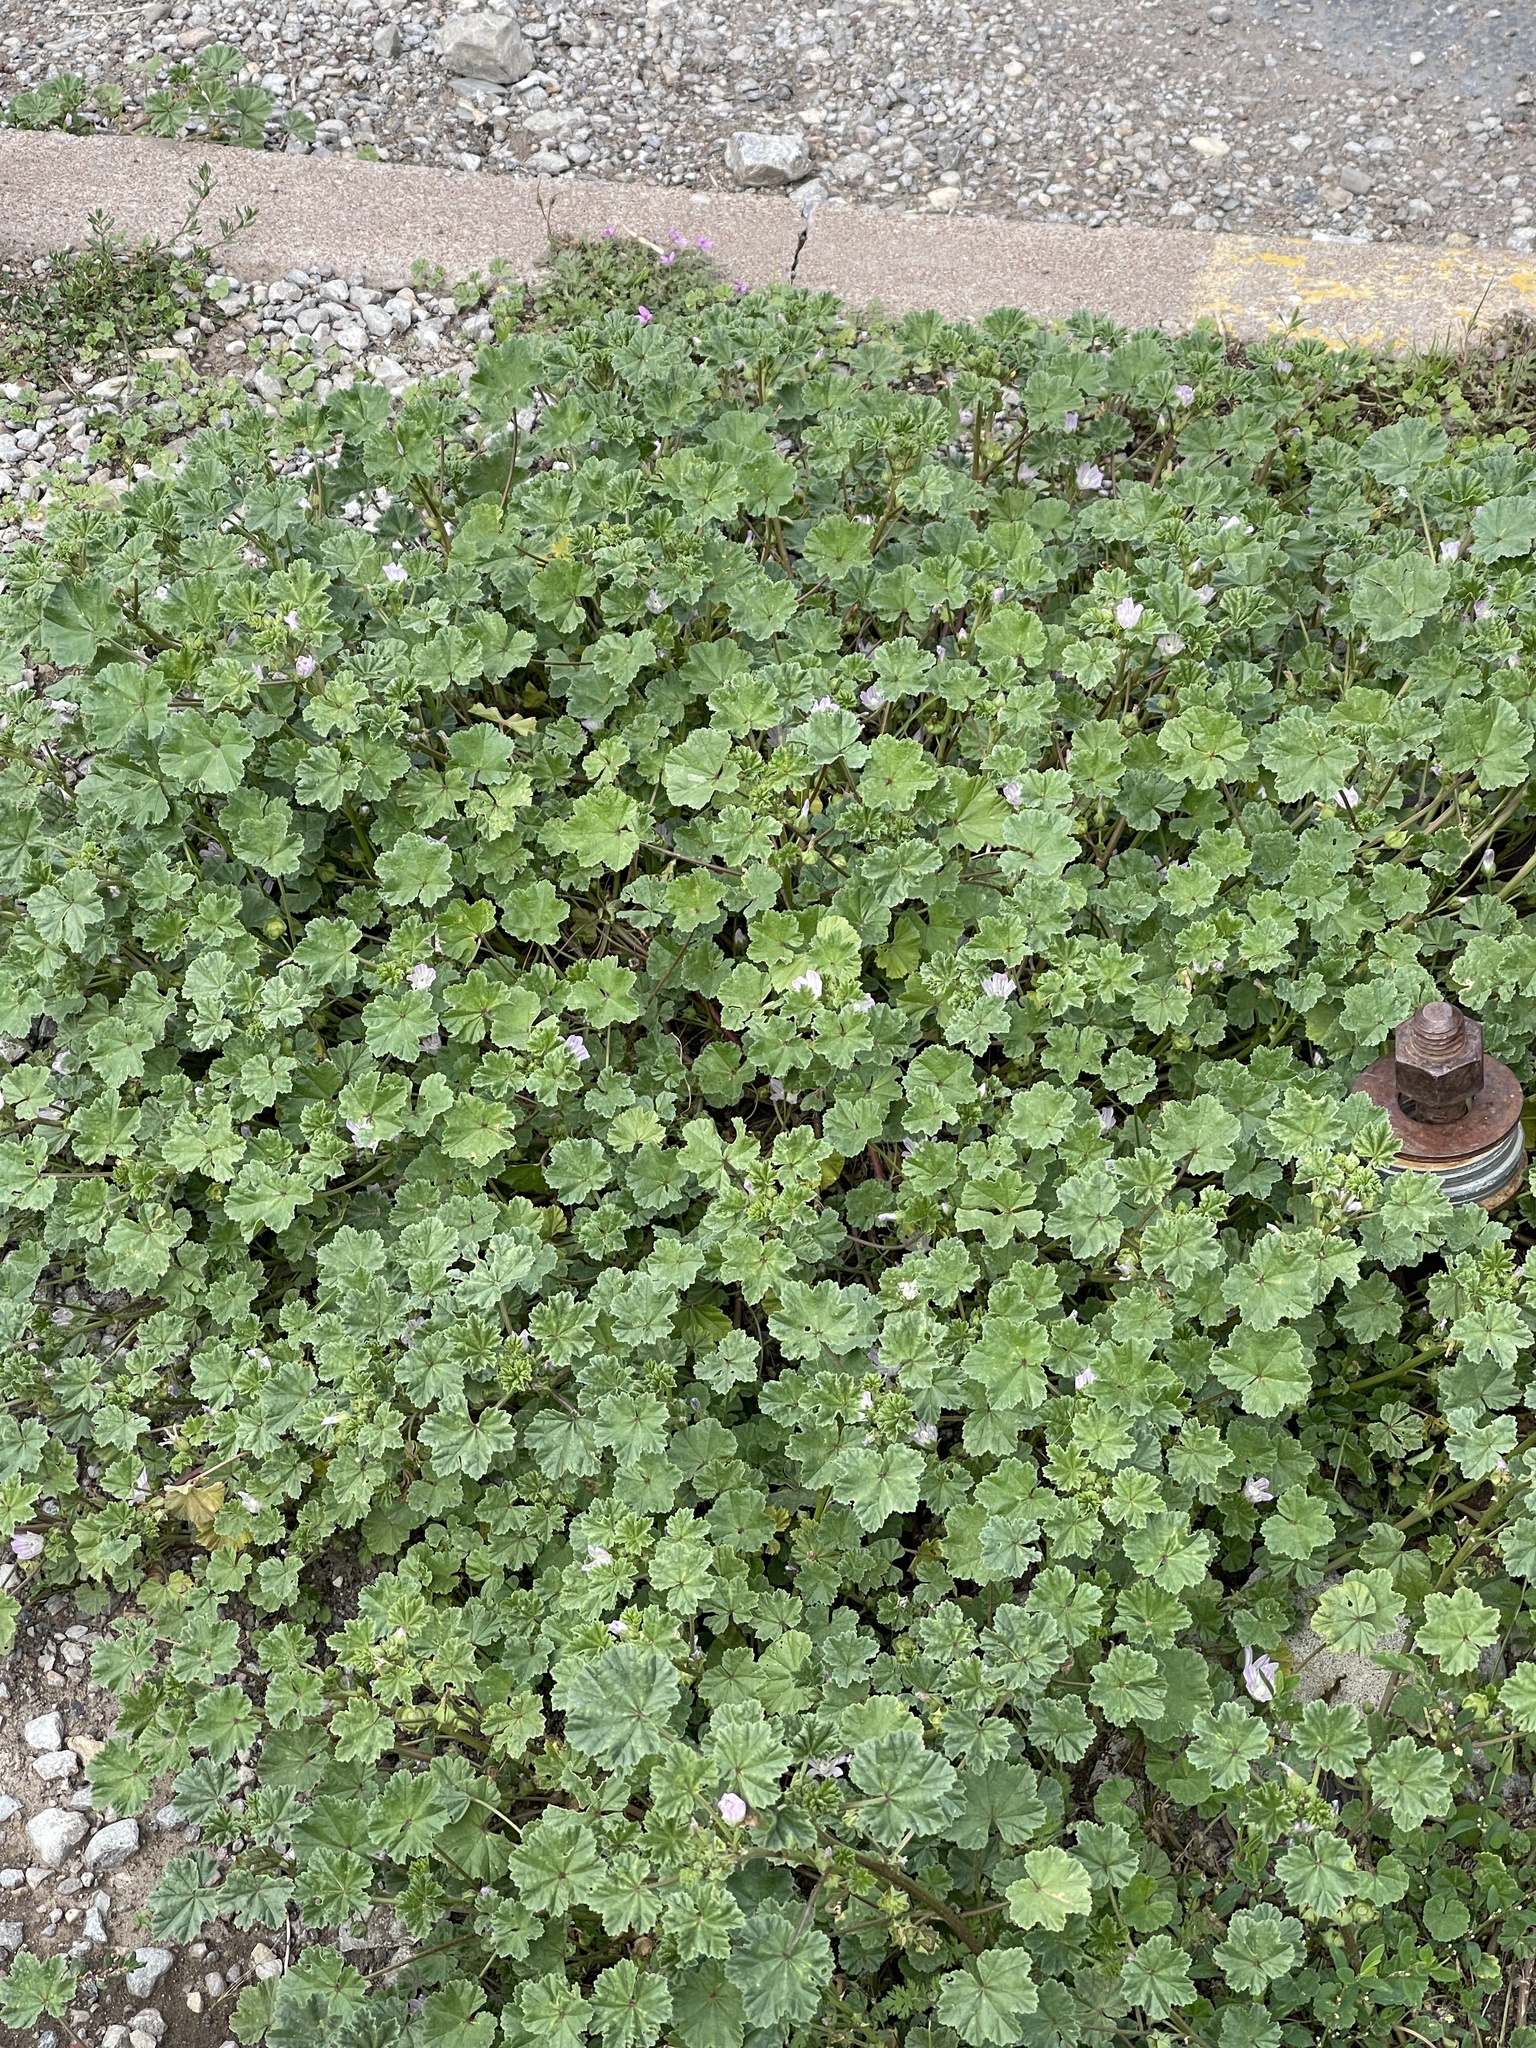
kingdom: Plantae
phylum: Tracheophyta
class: Magnoliopsida
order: Malvales
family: Malvaceae
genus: Malva
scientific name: Malva neglecta
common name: Common mallow
